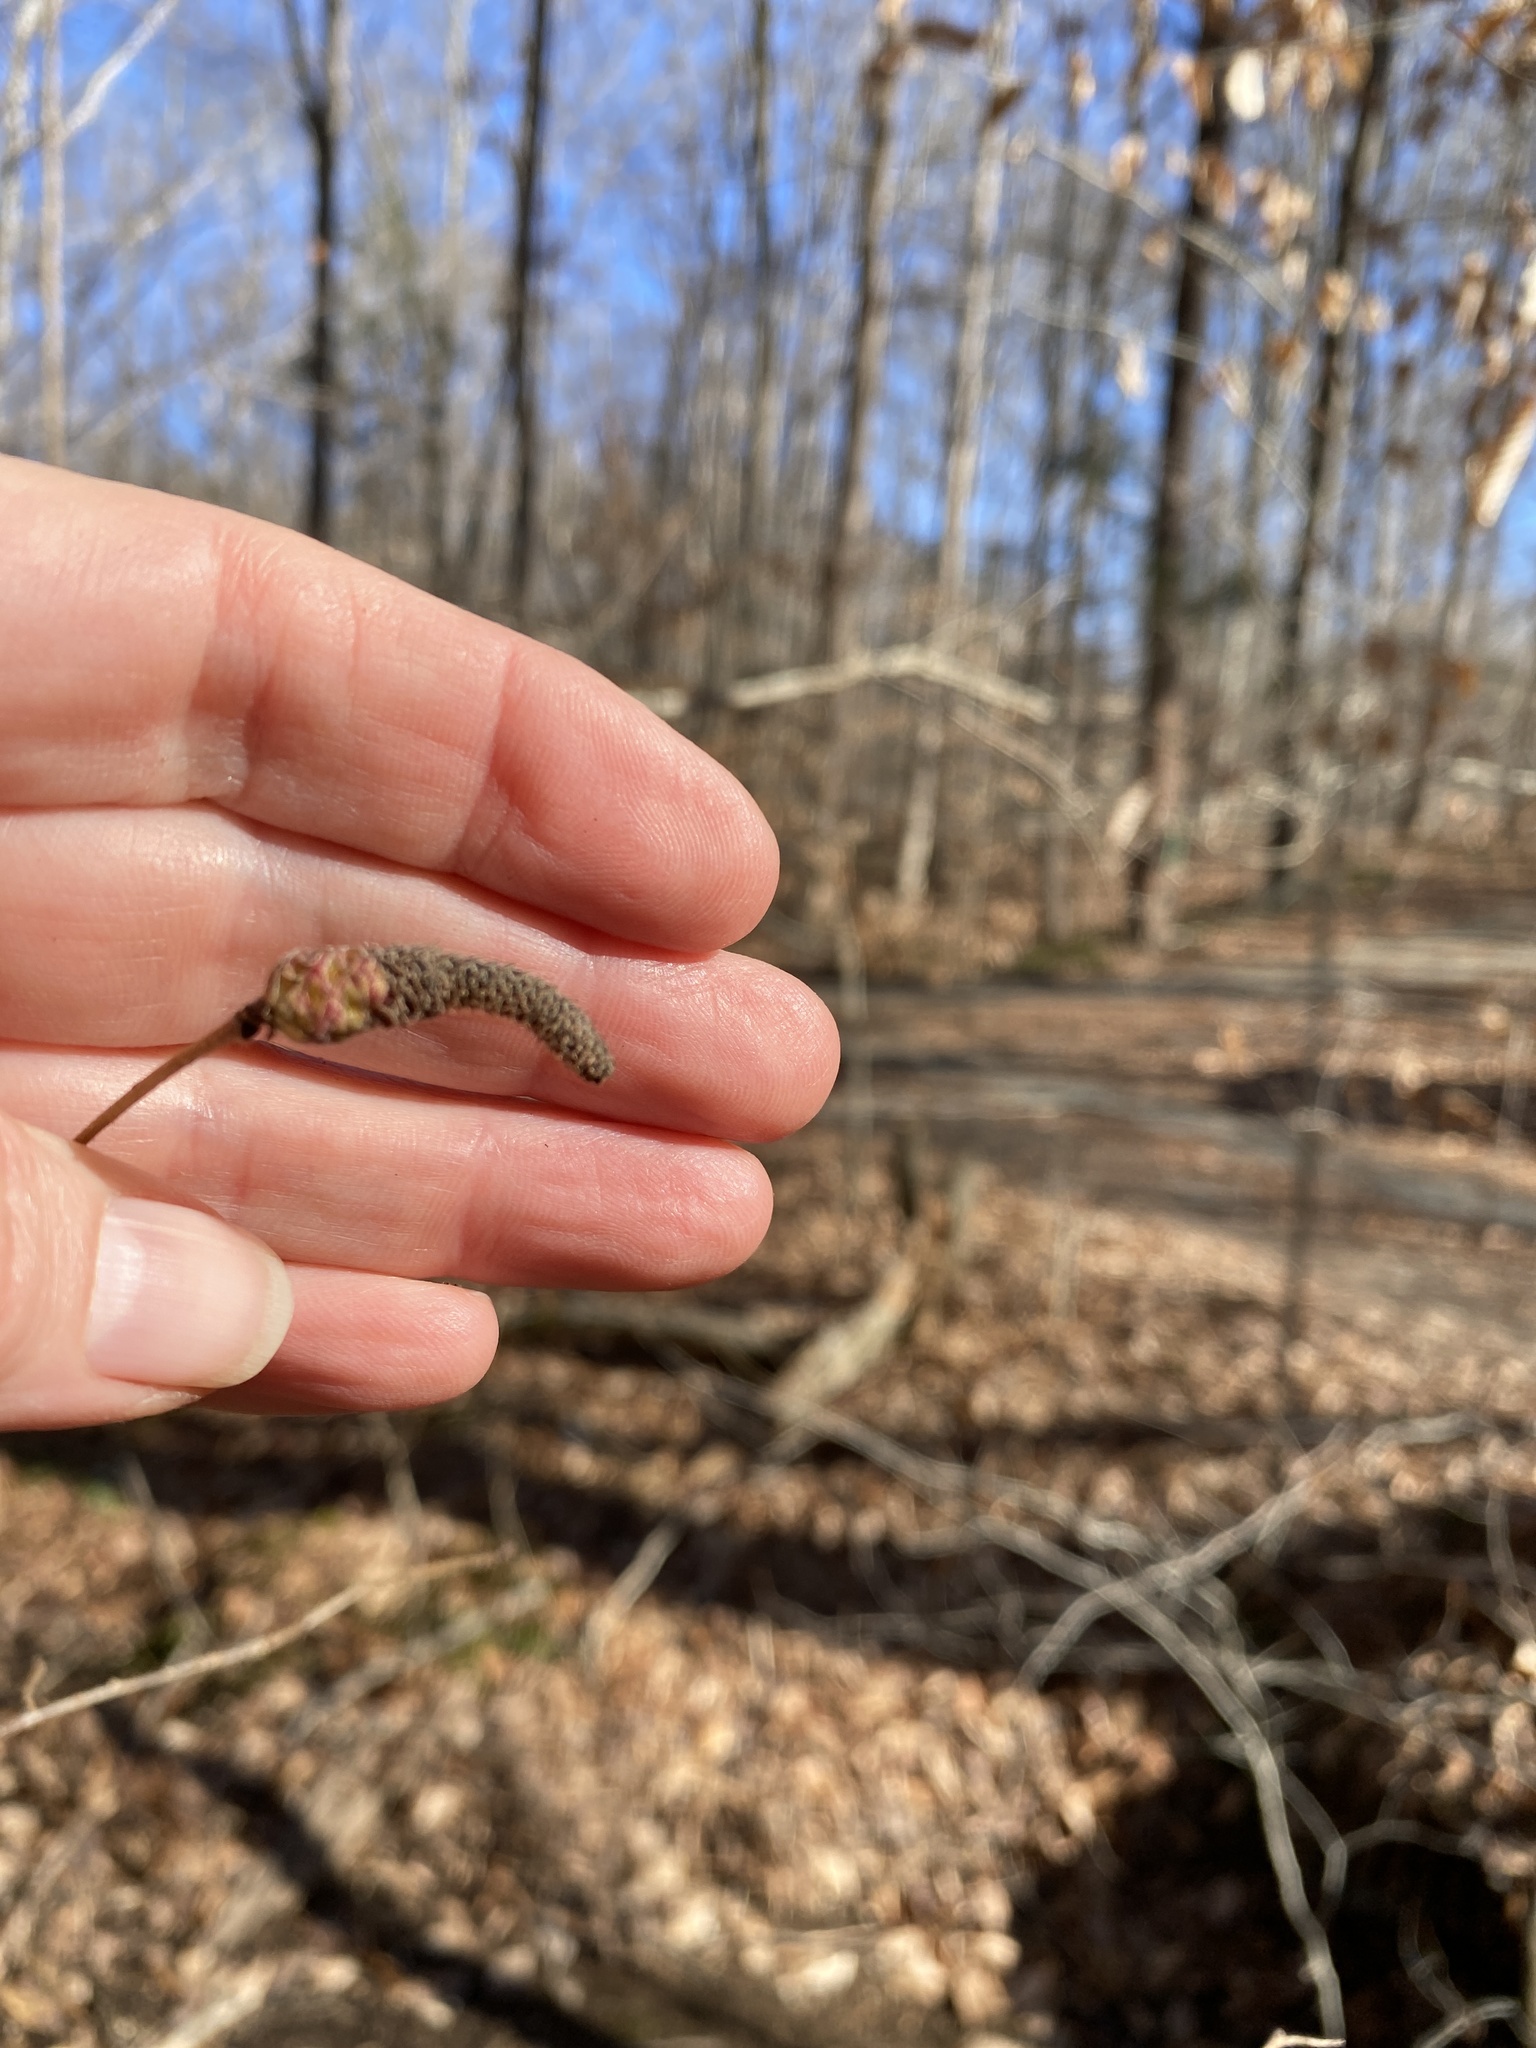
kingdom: Plantae
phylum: Tracheophyta
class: Magnoliopsida
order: Fagales
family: Betulaceae
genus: Corylus
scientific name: Corylus americana
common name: American hazel
